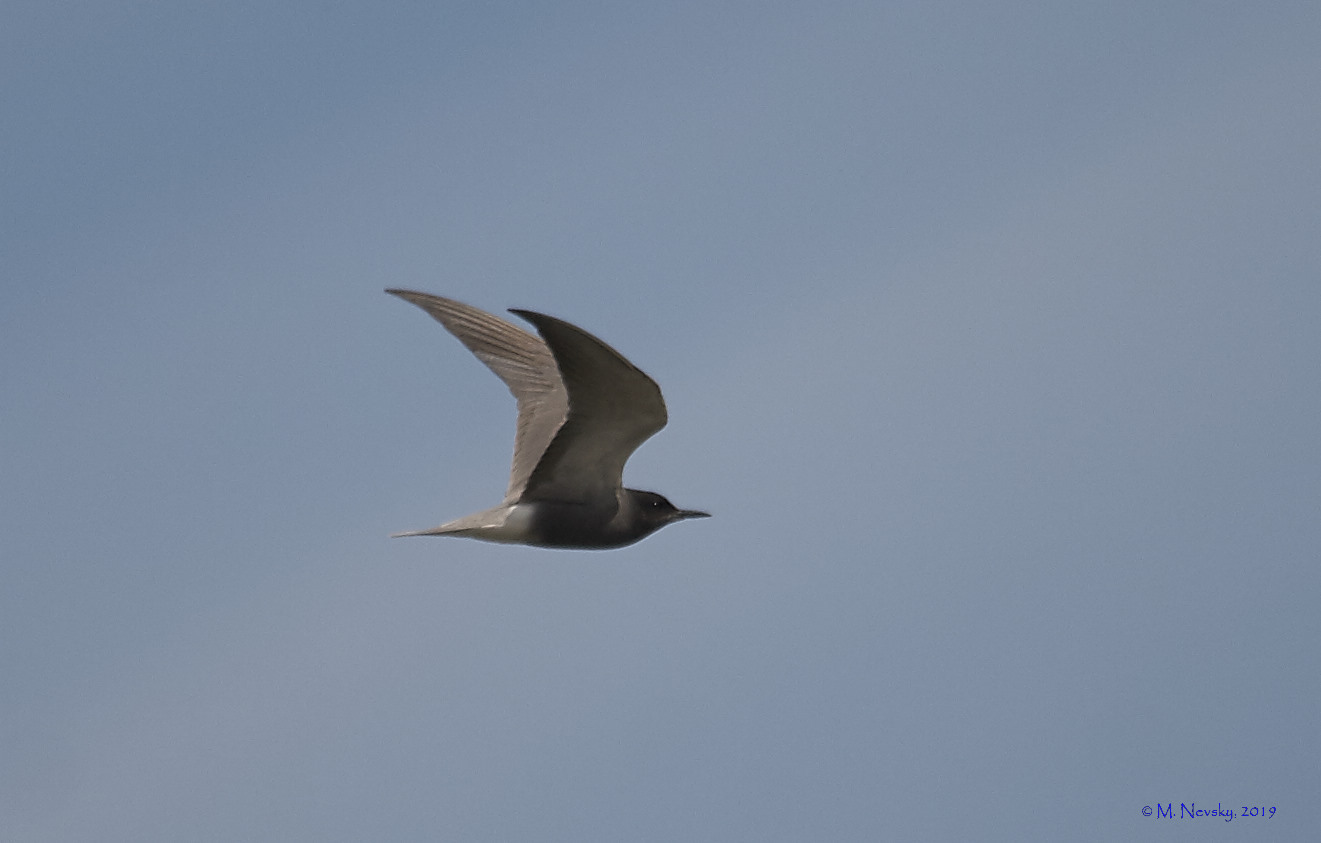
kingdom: Animalia
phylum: Chordata
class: Aves
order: Charadriiformes
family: Laridae
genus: Chlidonias
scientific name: Chlidonias niger
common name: Black tern
